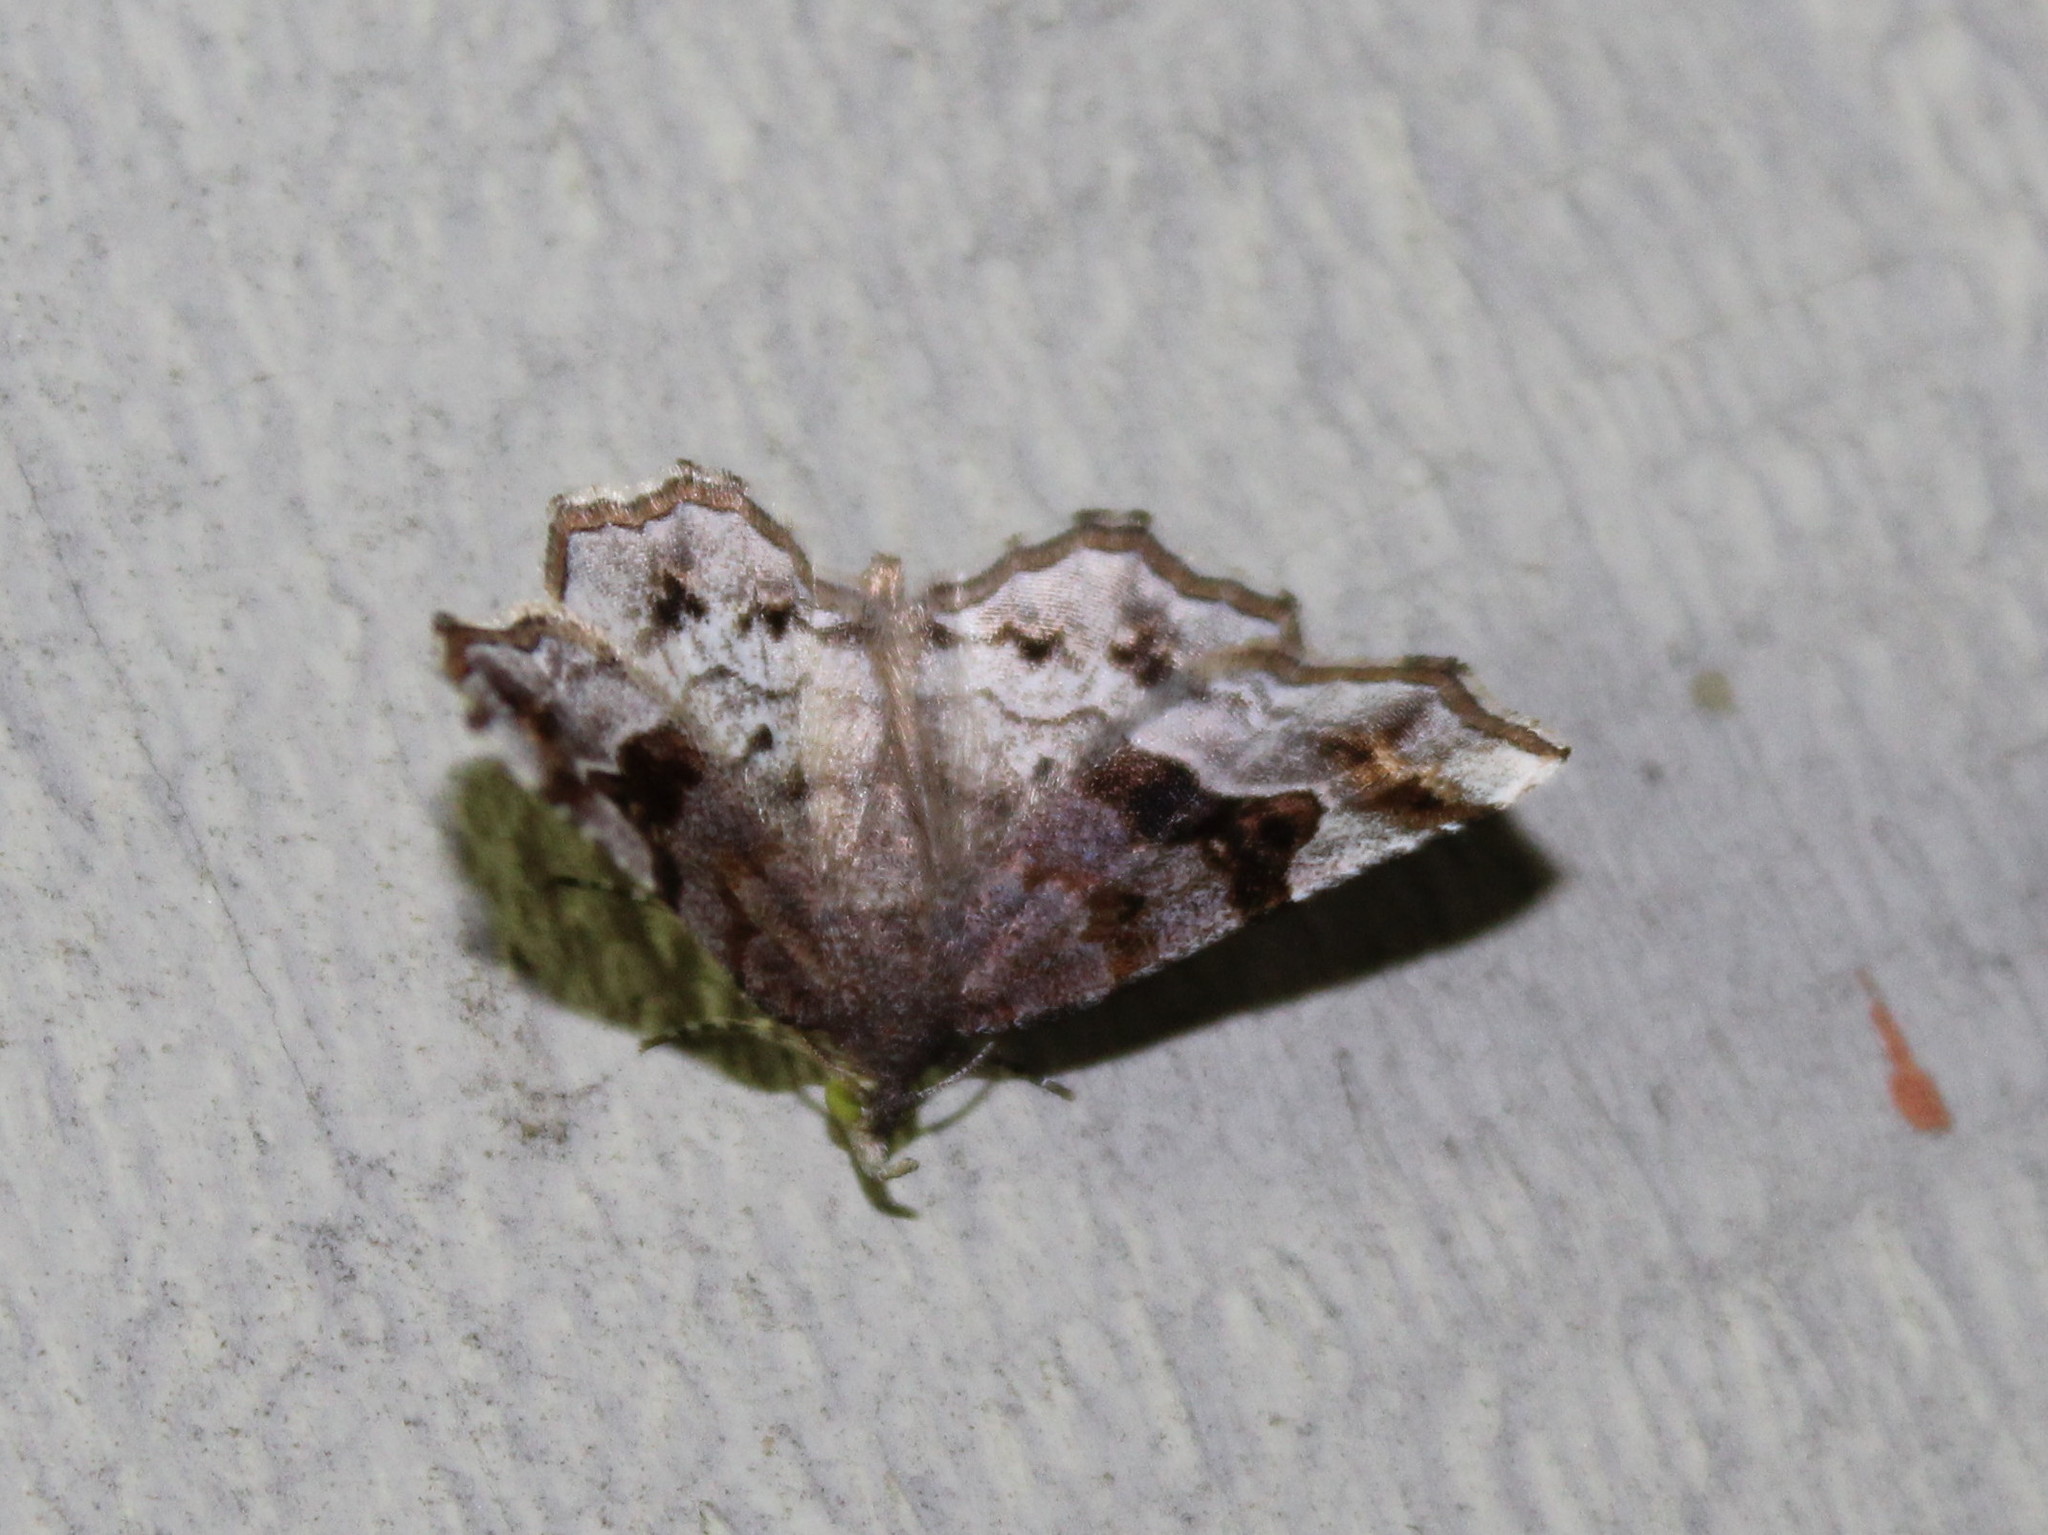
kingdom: Animalia
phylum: Arthropoda
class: Insecta
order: Lepidoptera
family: Erebidae
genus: Pangrapta
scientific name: Pangrapta decoralis
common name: Decorated owlet
